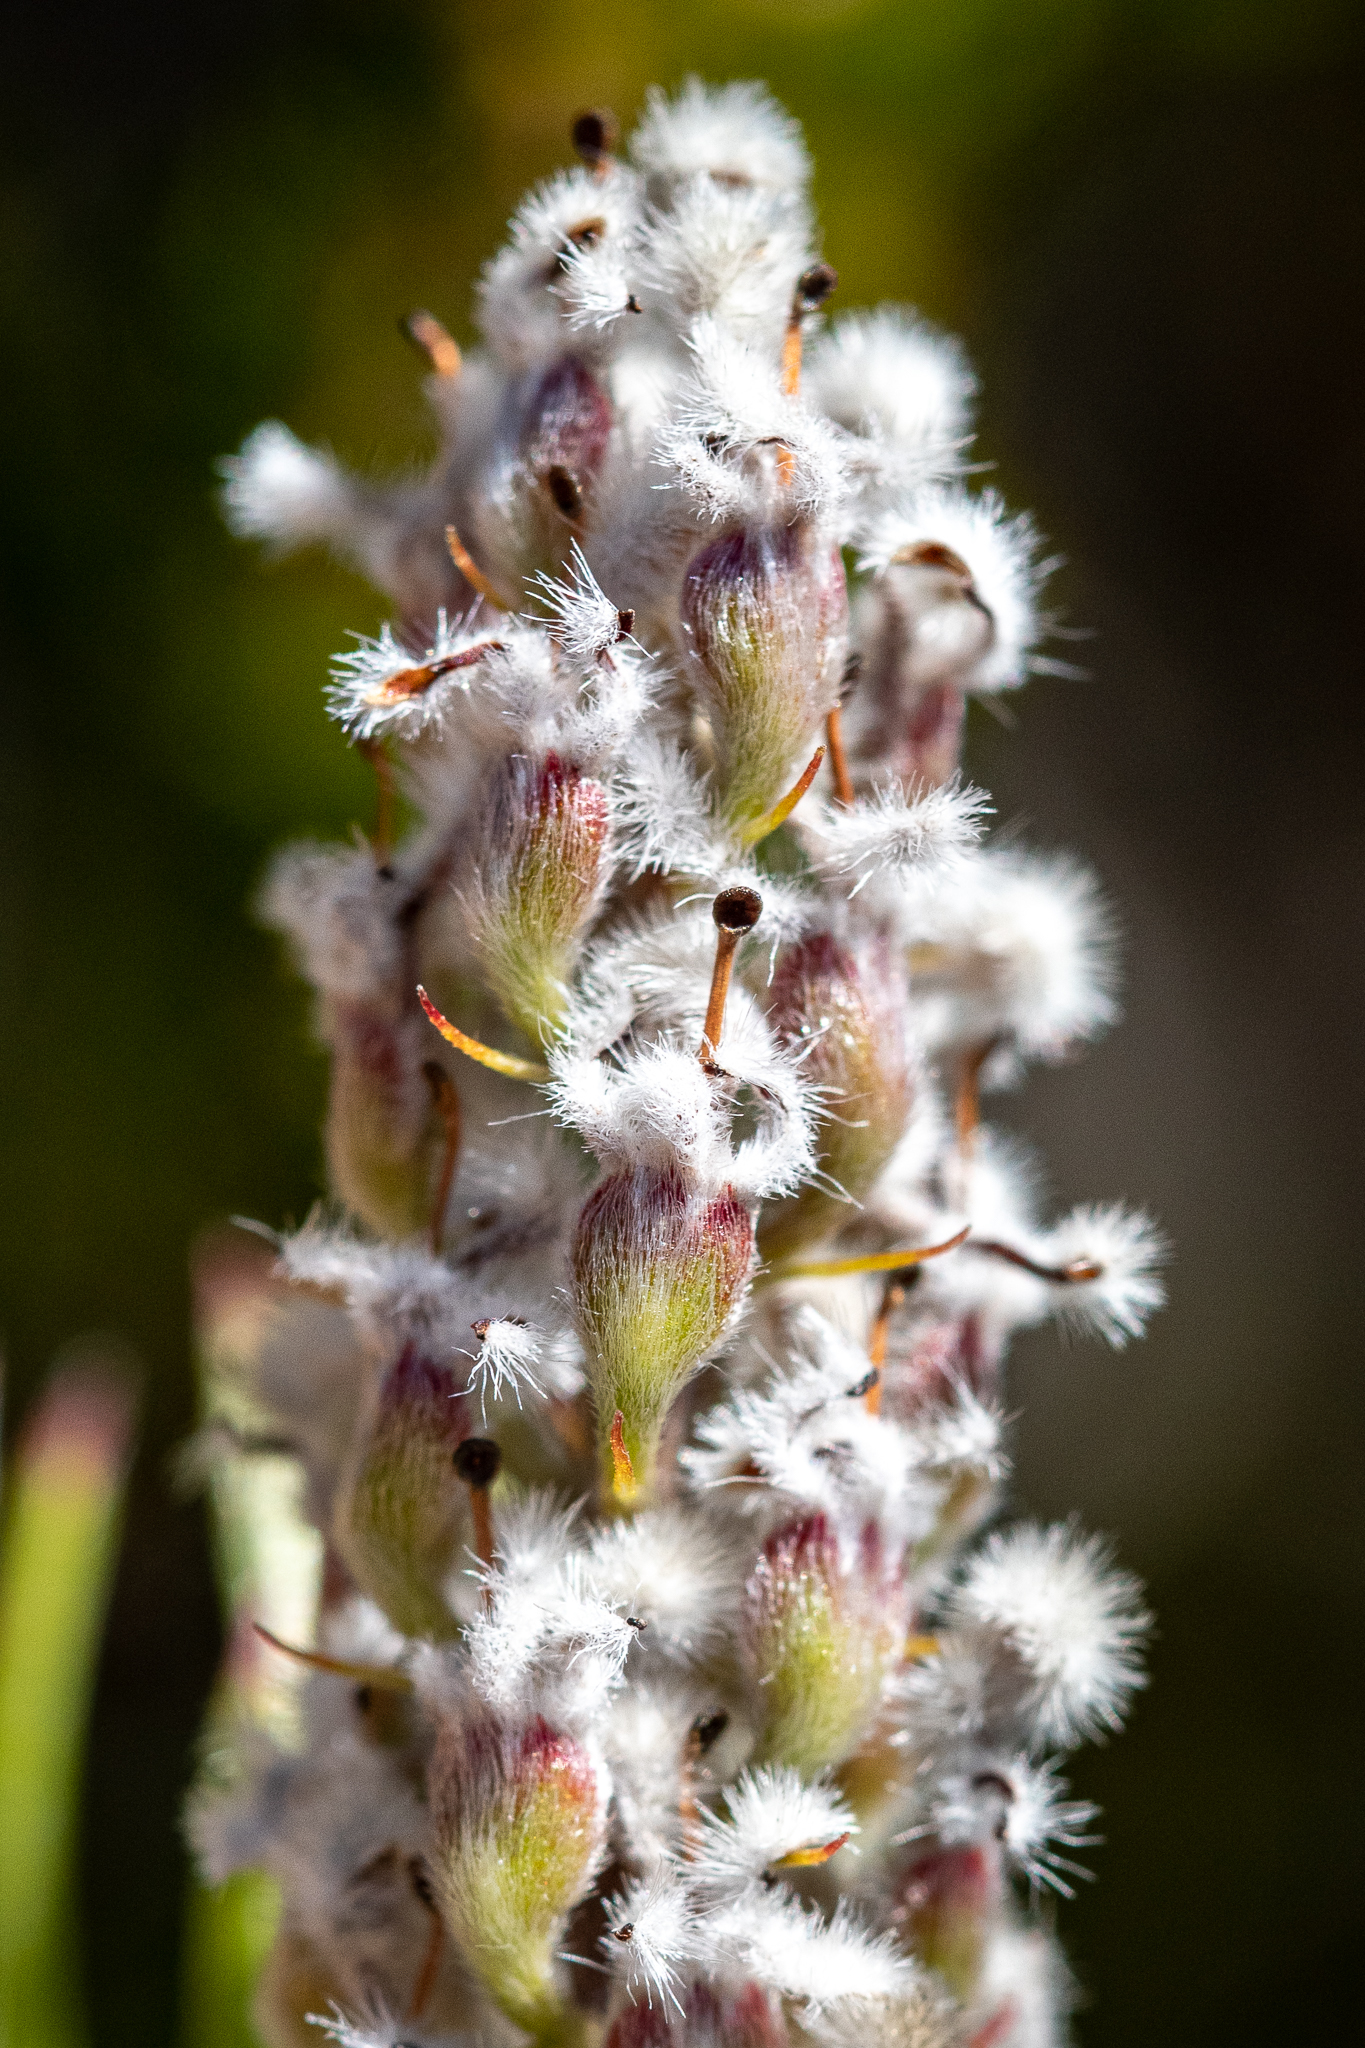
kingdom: Plantae
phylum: Tracheophyta
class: Magnoliopsida
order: Proteales
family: Proteaceae
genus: Spatalla
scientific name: Spatalla curvifolia
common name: White-stalked spoon
